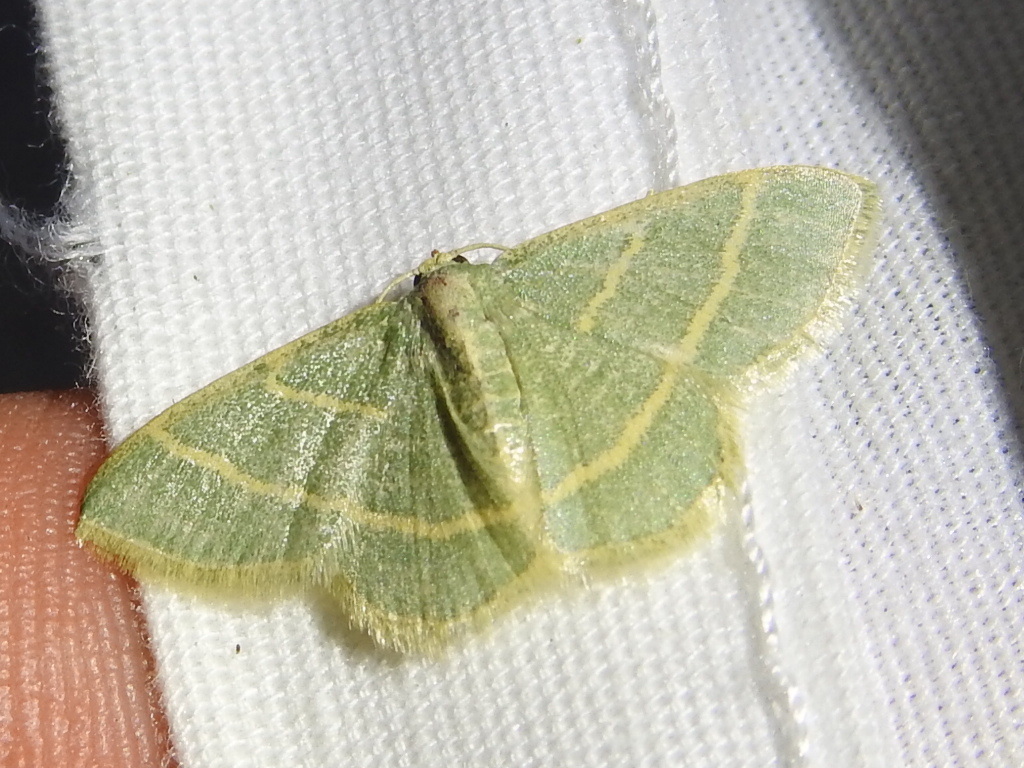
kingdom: Animalia
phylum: Arthropoda
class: Insecta
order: Lepidoptera
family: Geometridae
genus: Chlorochlamys
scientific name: Chlorochlamys chloroleucaria
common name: Blackberry looper
